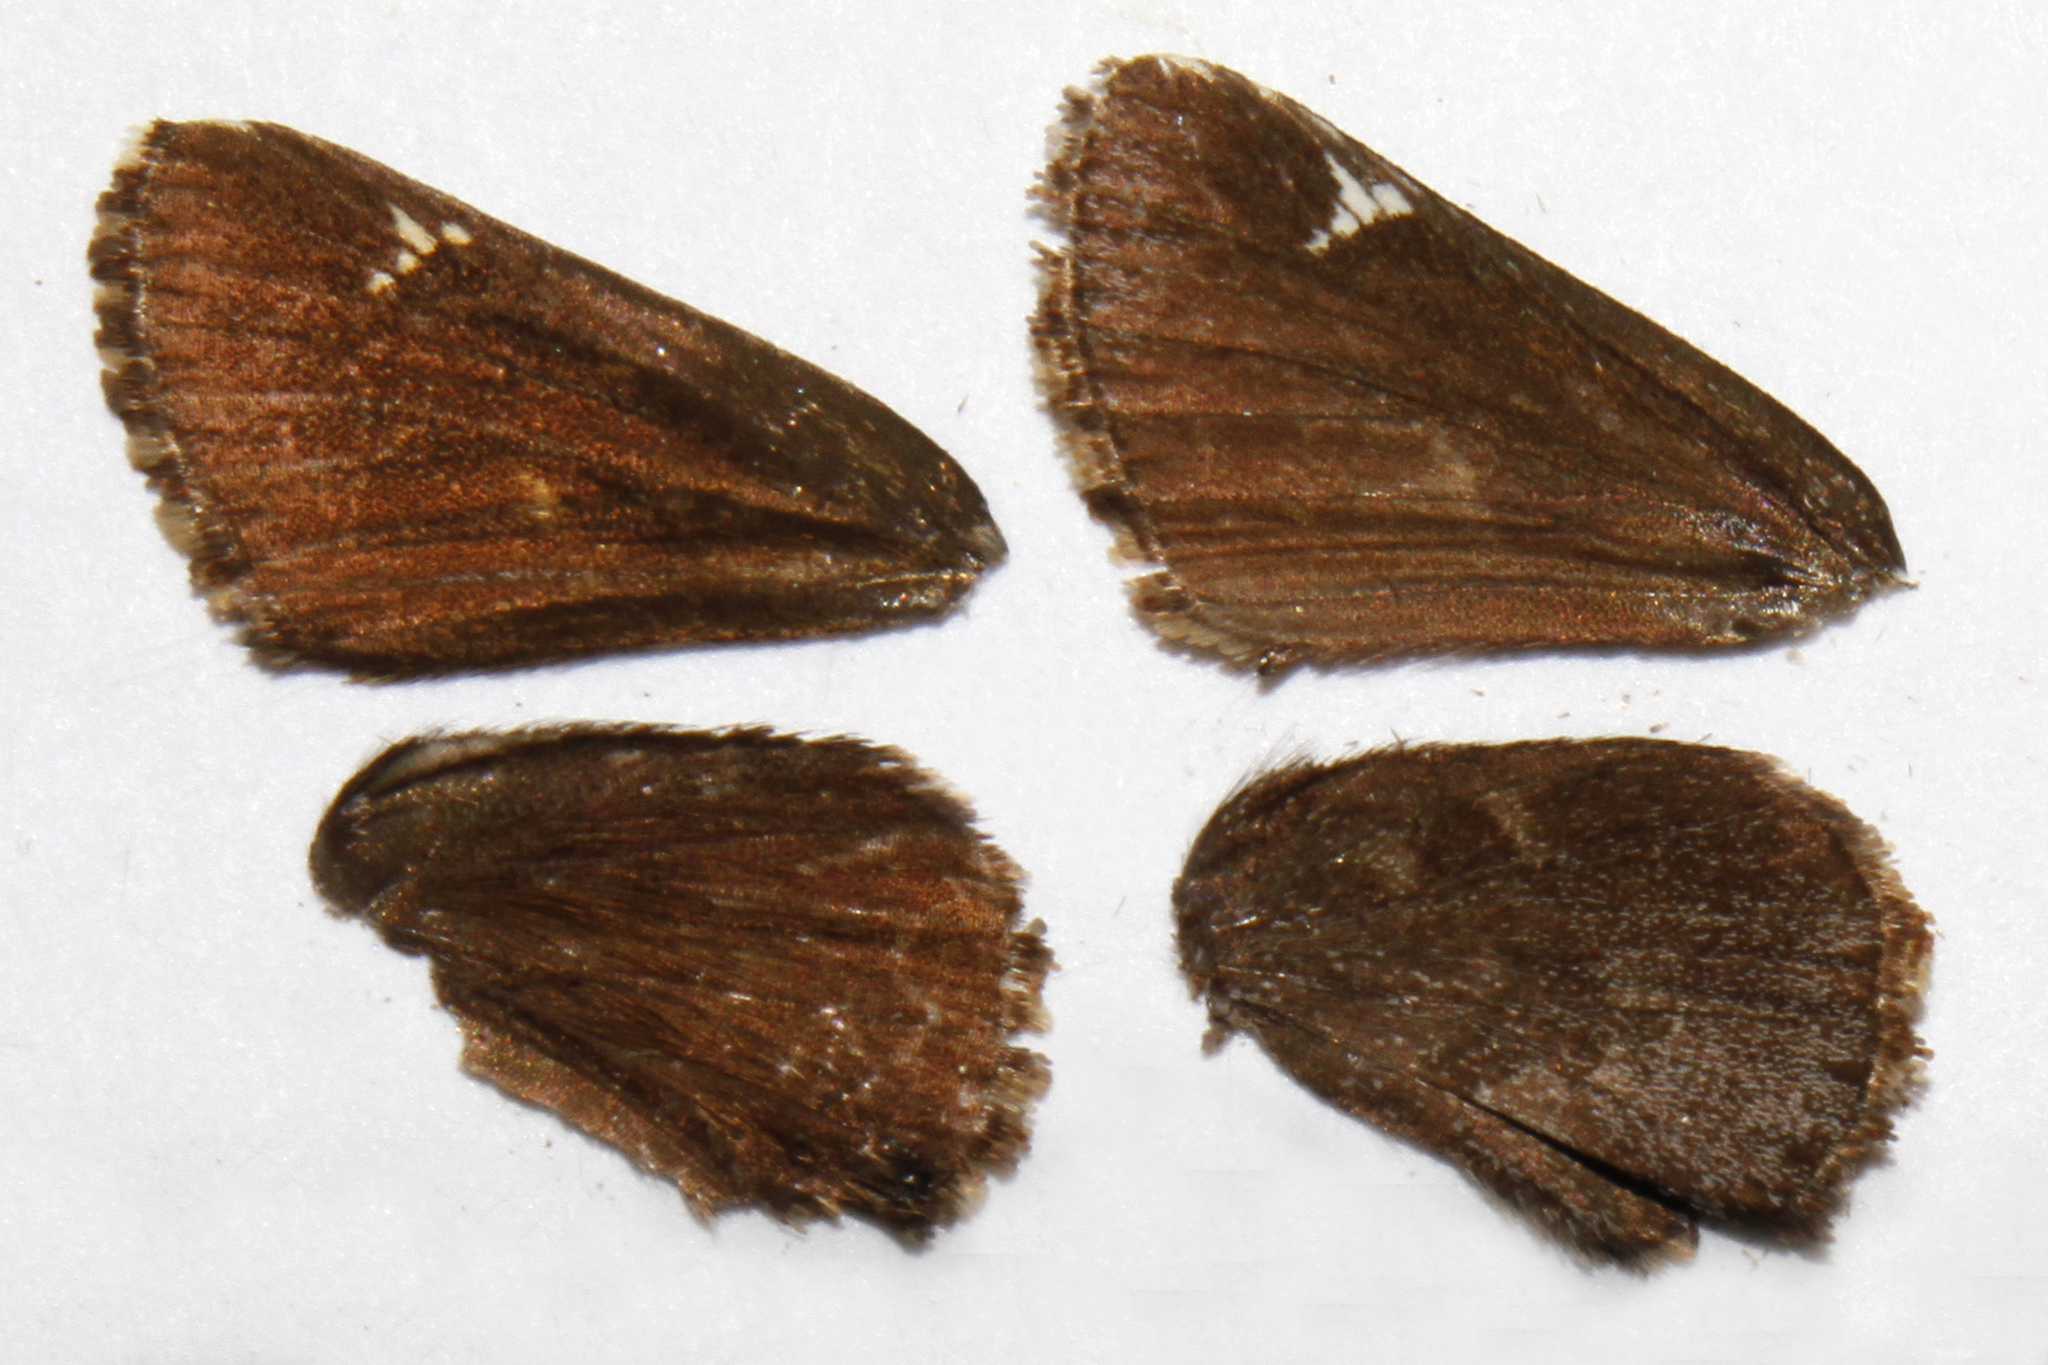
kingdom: Animalia
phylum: Arthropoda
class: Insecta
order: Lepidoptera
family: Hesperiidae
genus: Mastor
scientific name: Mastor vialis
